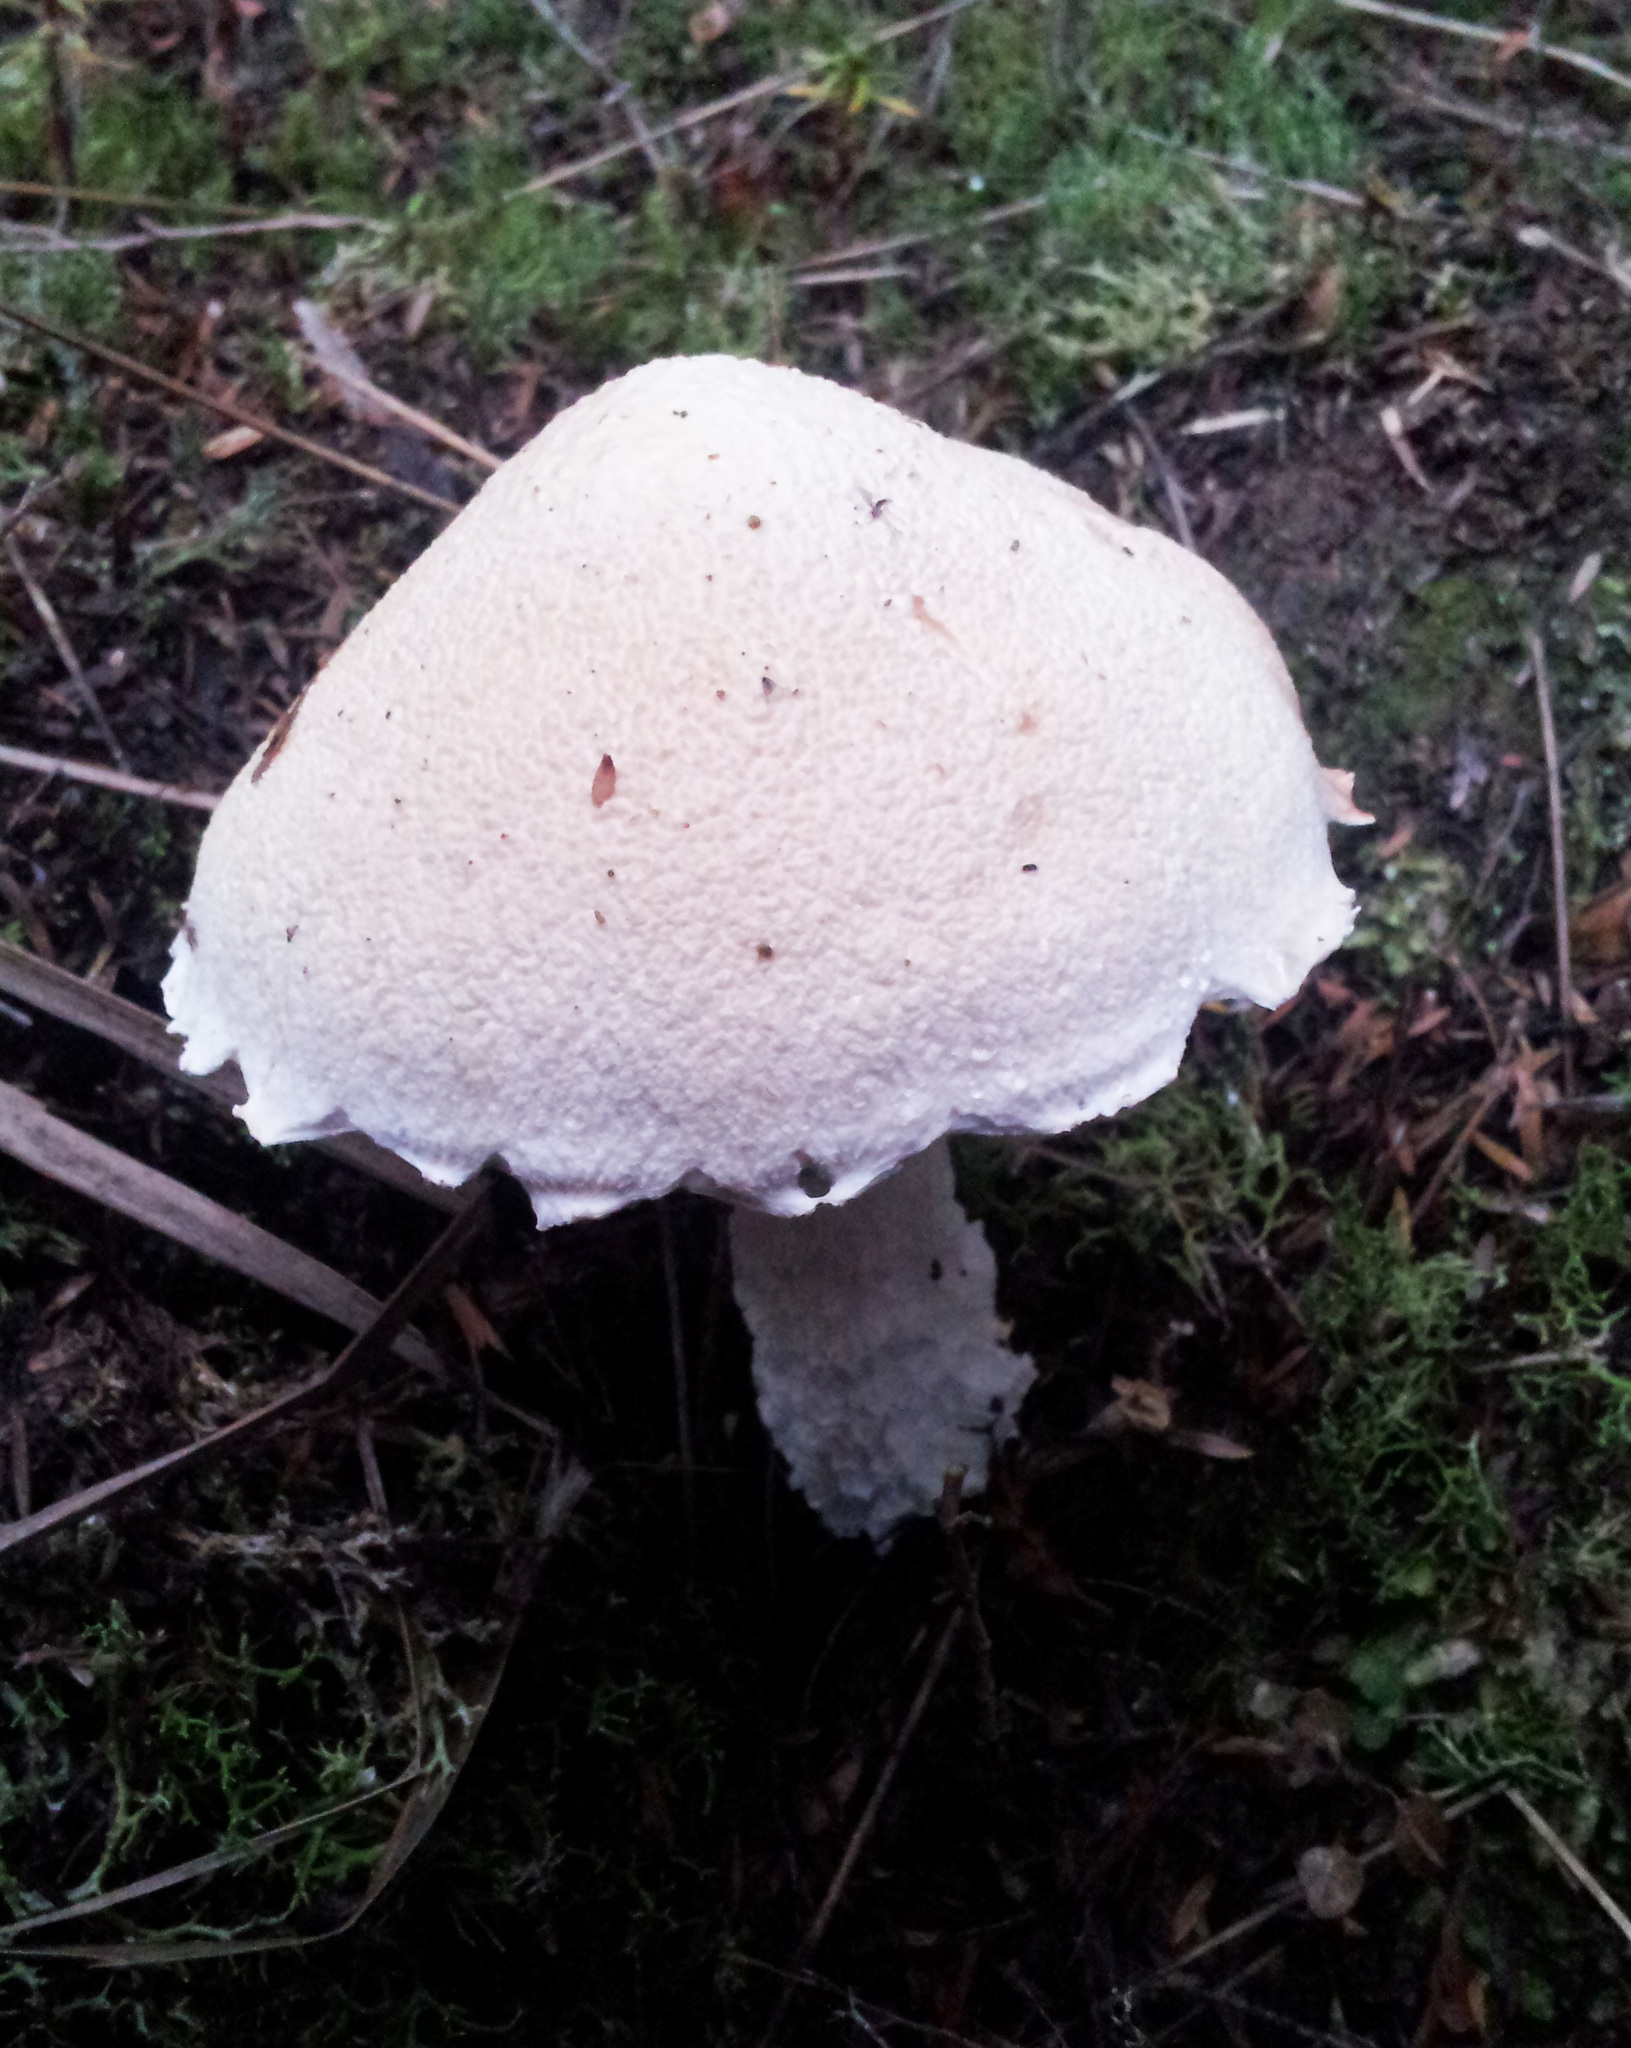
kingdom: Fungi
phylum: Basidiomycota
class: Agaricomycetes
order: Boletales
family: Boletaceae
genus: Fistulinella
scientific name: Fistulinella nivea
